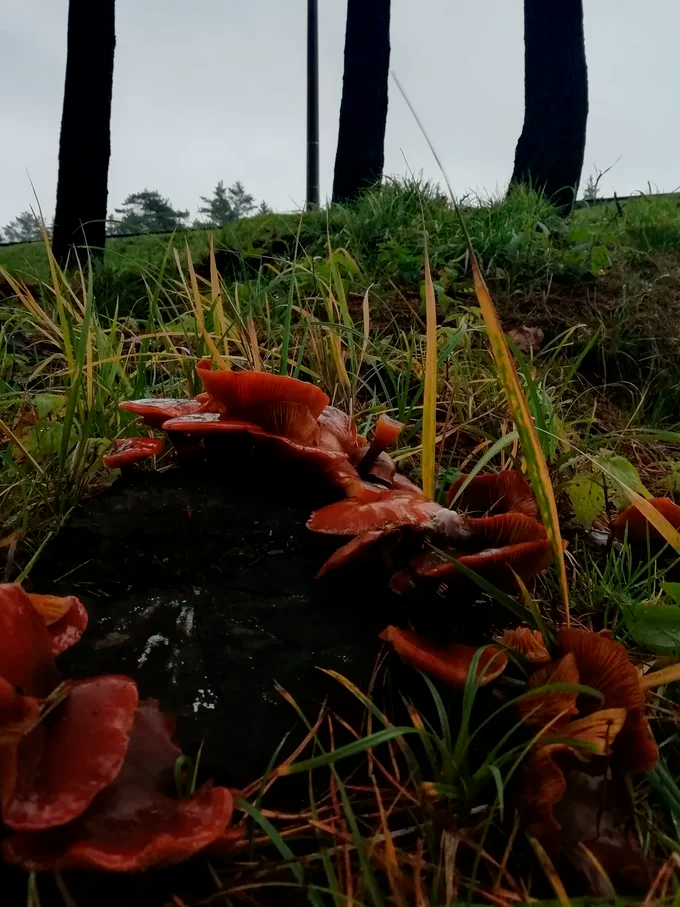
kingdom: Fungi
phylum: Basidiomycota
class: Agaricomycetes
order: Agaricales
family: Physalacriaceae
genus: Flammulina
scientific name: Flammulina
